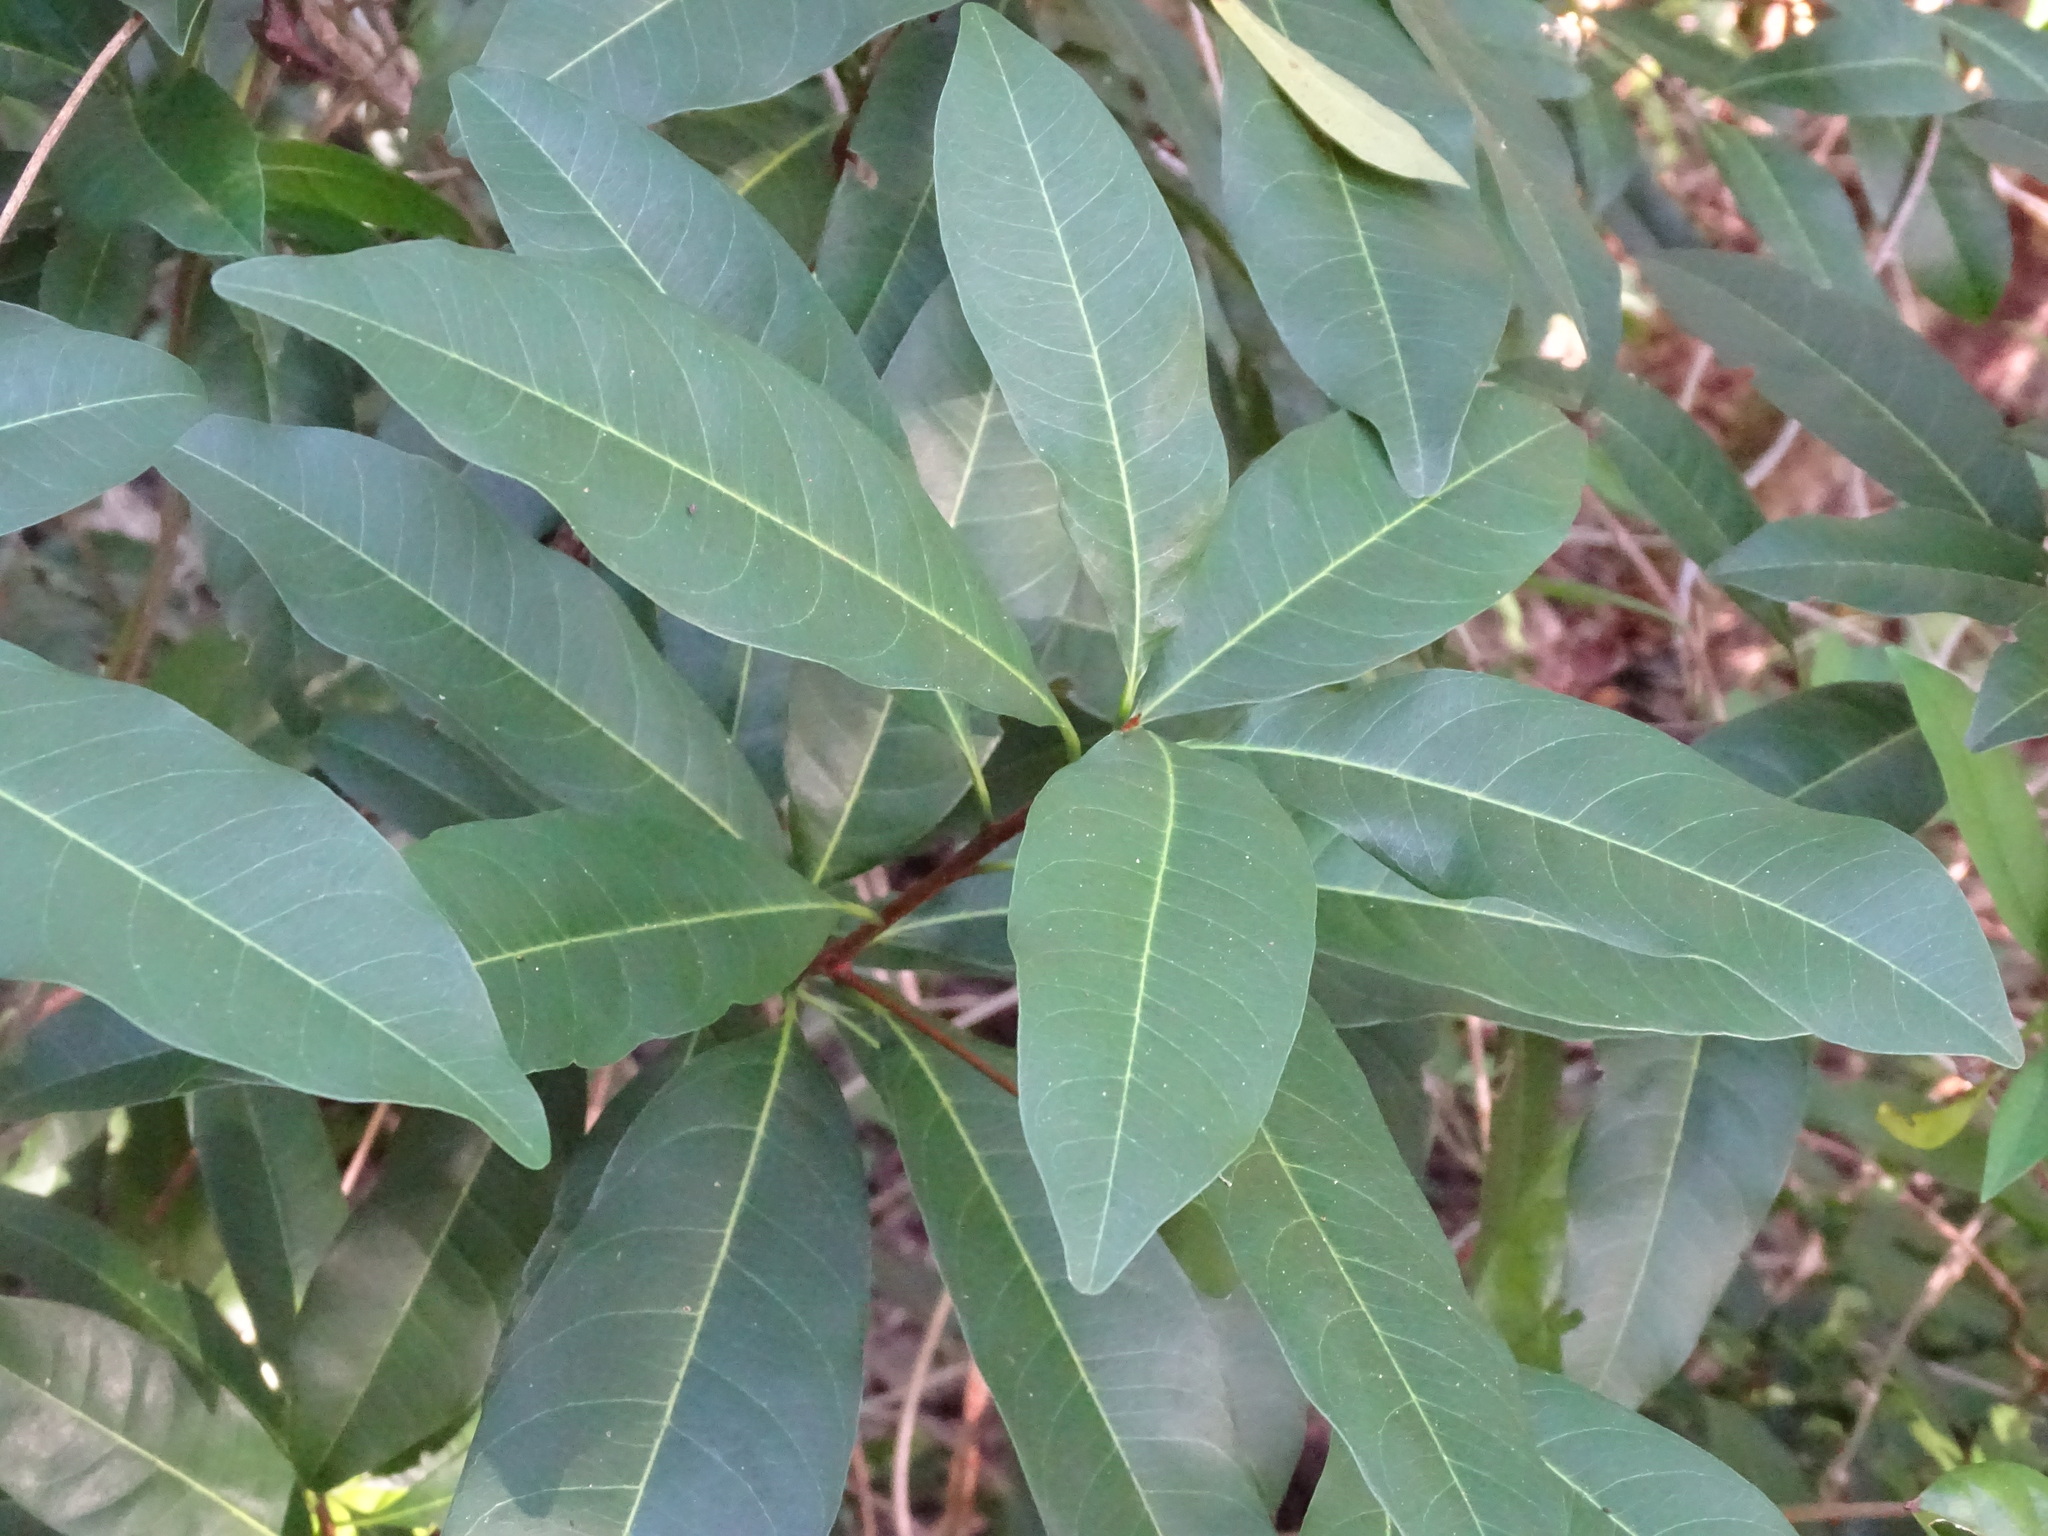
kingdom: Plantae
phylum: Tracheophyta
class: Magnoliopsida
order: Ericales
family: Sapotaceae
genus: Sideroxylon
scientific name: Sideroxylon foetidissimum
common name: Barbados-mastic
